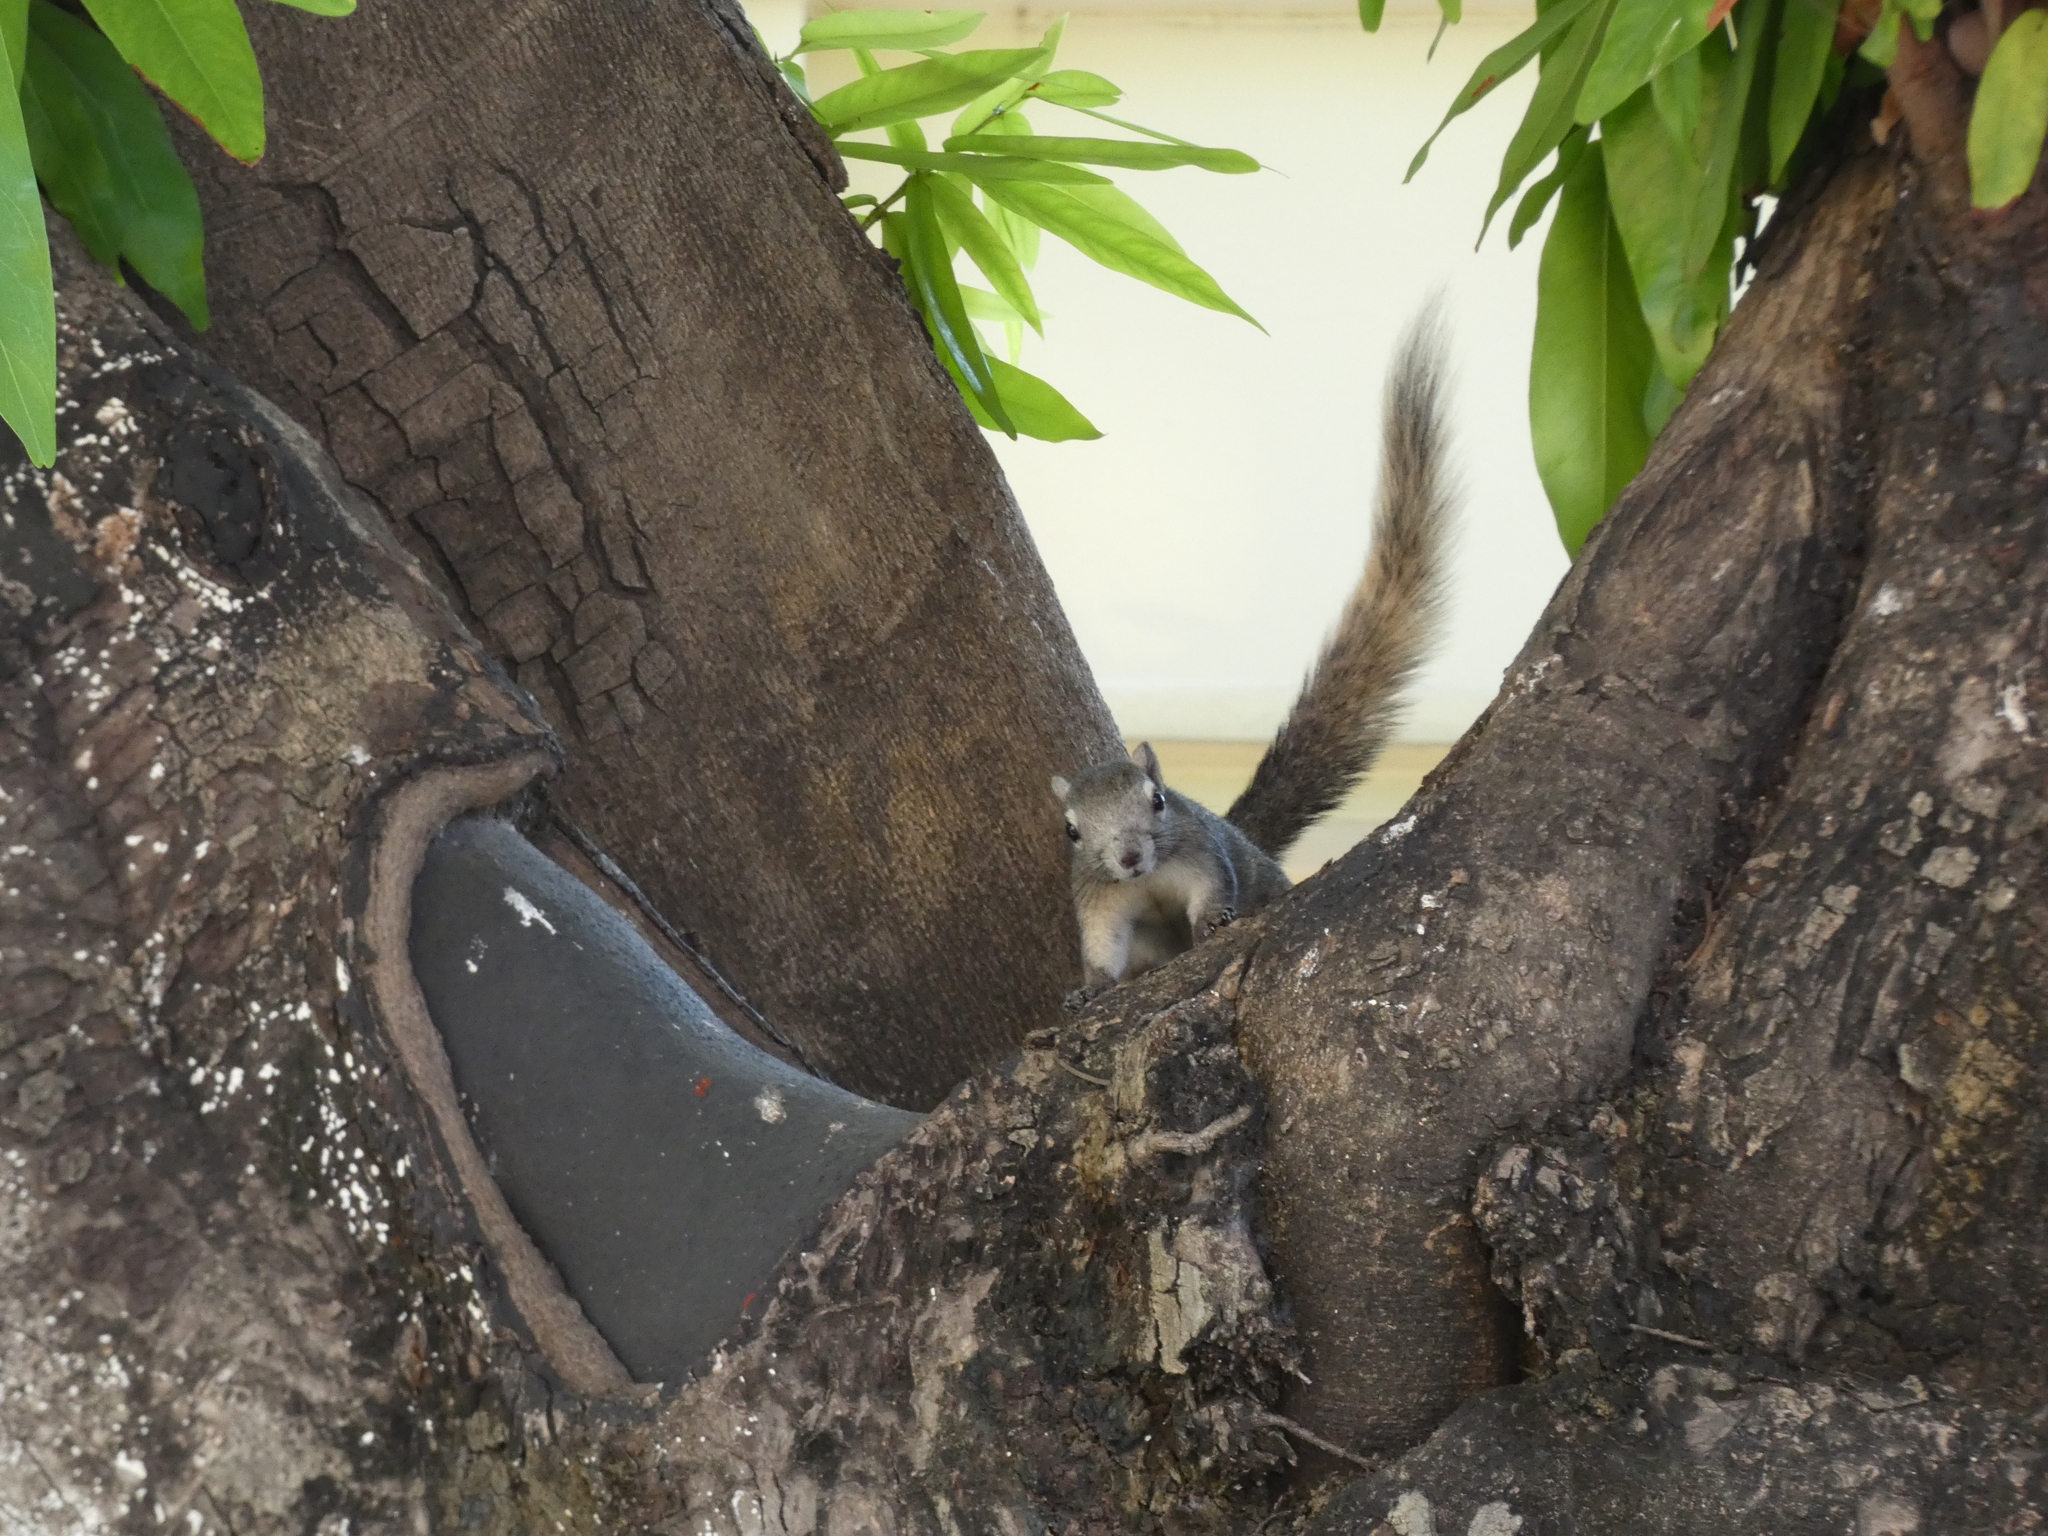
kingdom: Animalia
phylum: Chordata
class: Mammalia
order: Rodentia
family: Sciuridae
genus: Callosciurus
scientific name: Callosciurus finlaysonii
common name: Finlayson's squirrel
